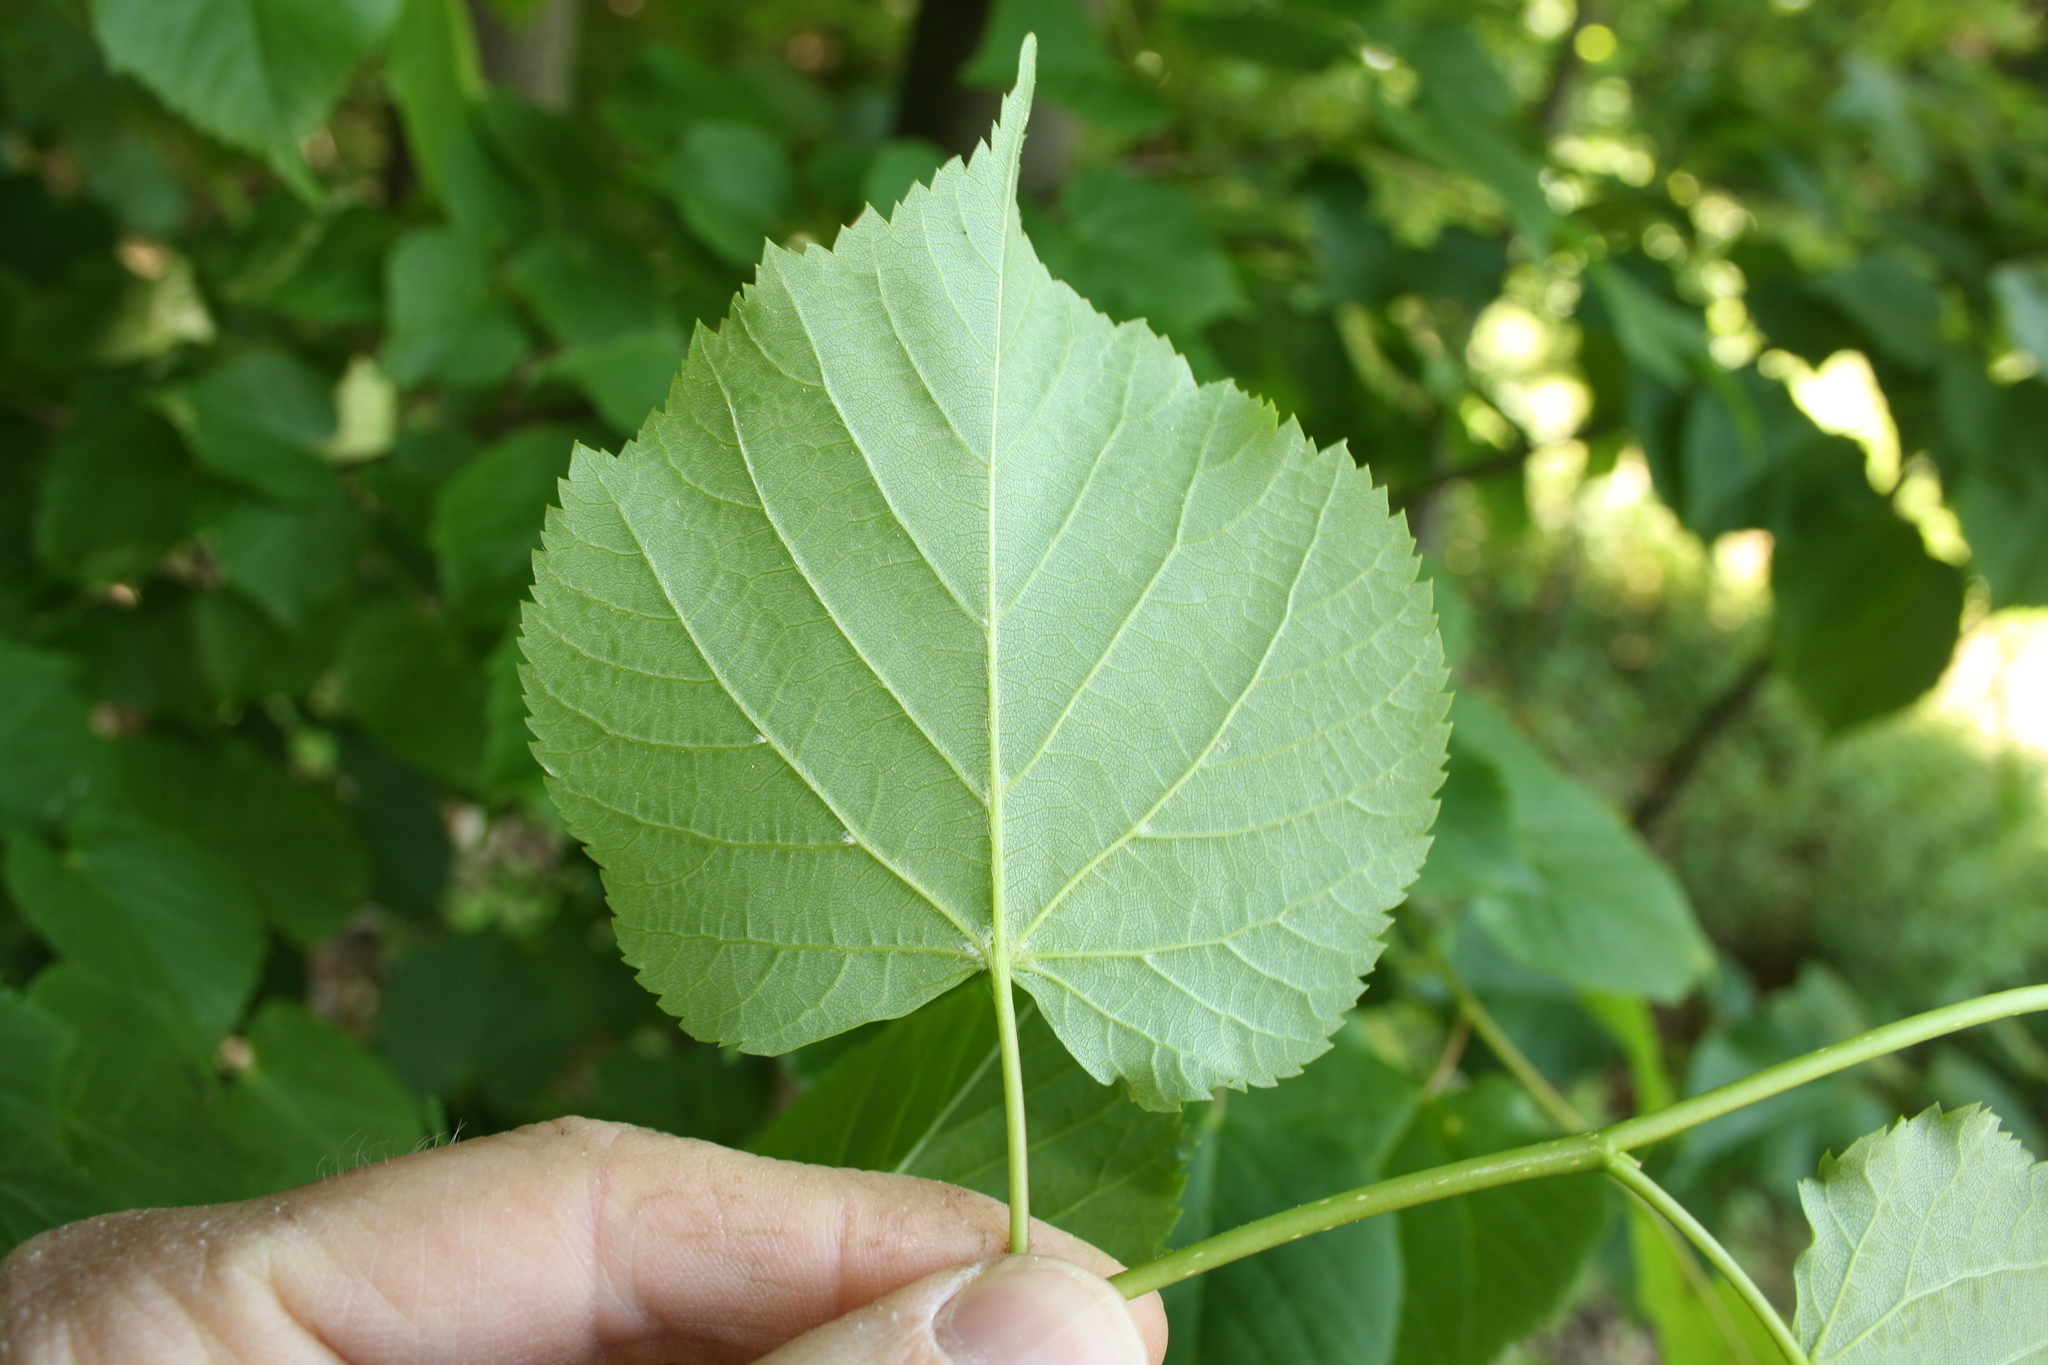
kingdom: Plantae
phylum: Tracheophyta
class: Magnoliopsida
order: Malvales
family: Malvaceae
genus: Tilia
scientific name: Tilia cordata
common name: Small-leaved lime
